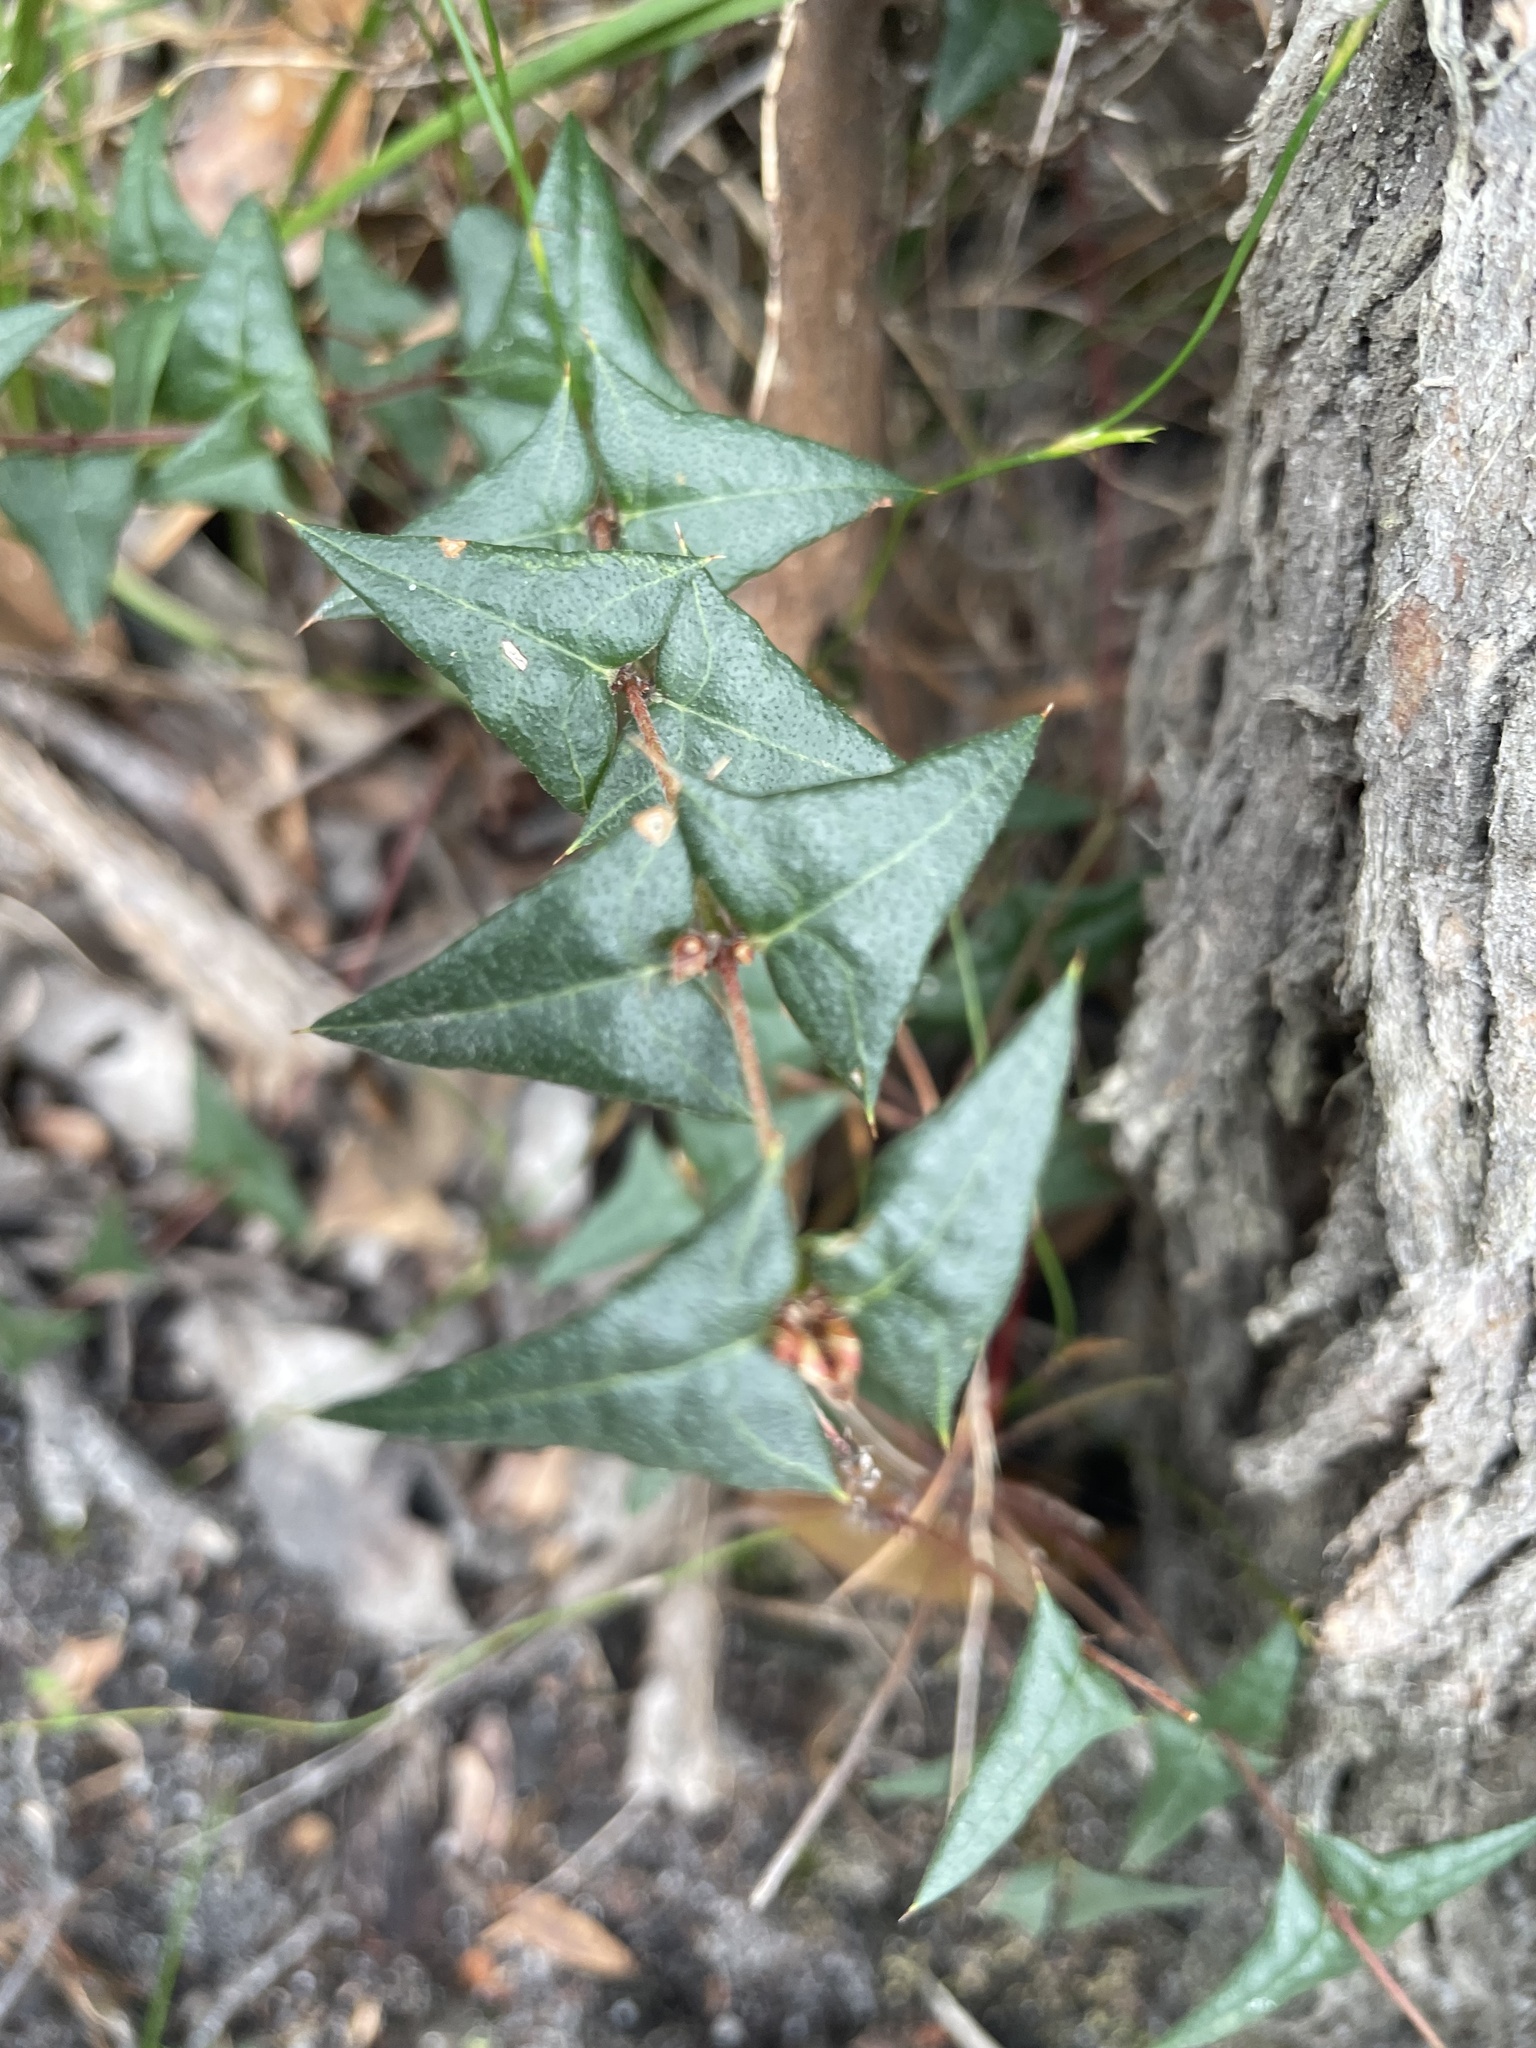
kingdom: Plantae
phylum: Tracheophyta
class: Magnoliopsida
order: Fabales
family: Fabaceae
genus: Platylobium
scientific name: Platylobium obtusangulum
